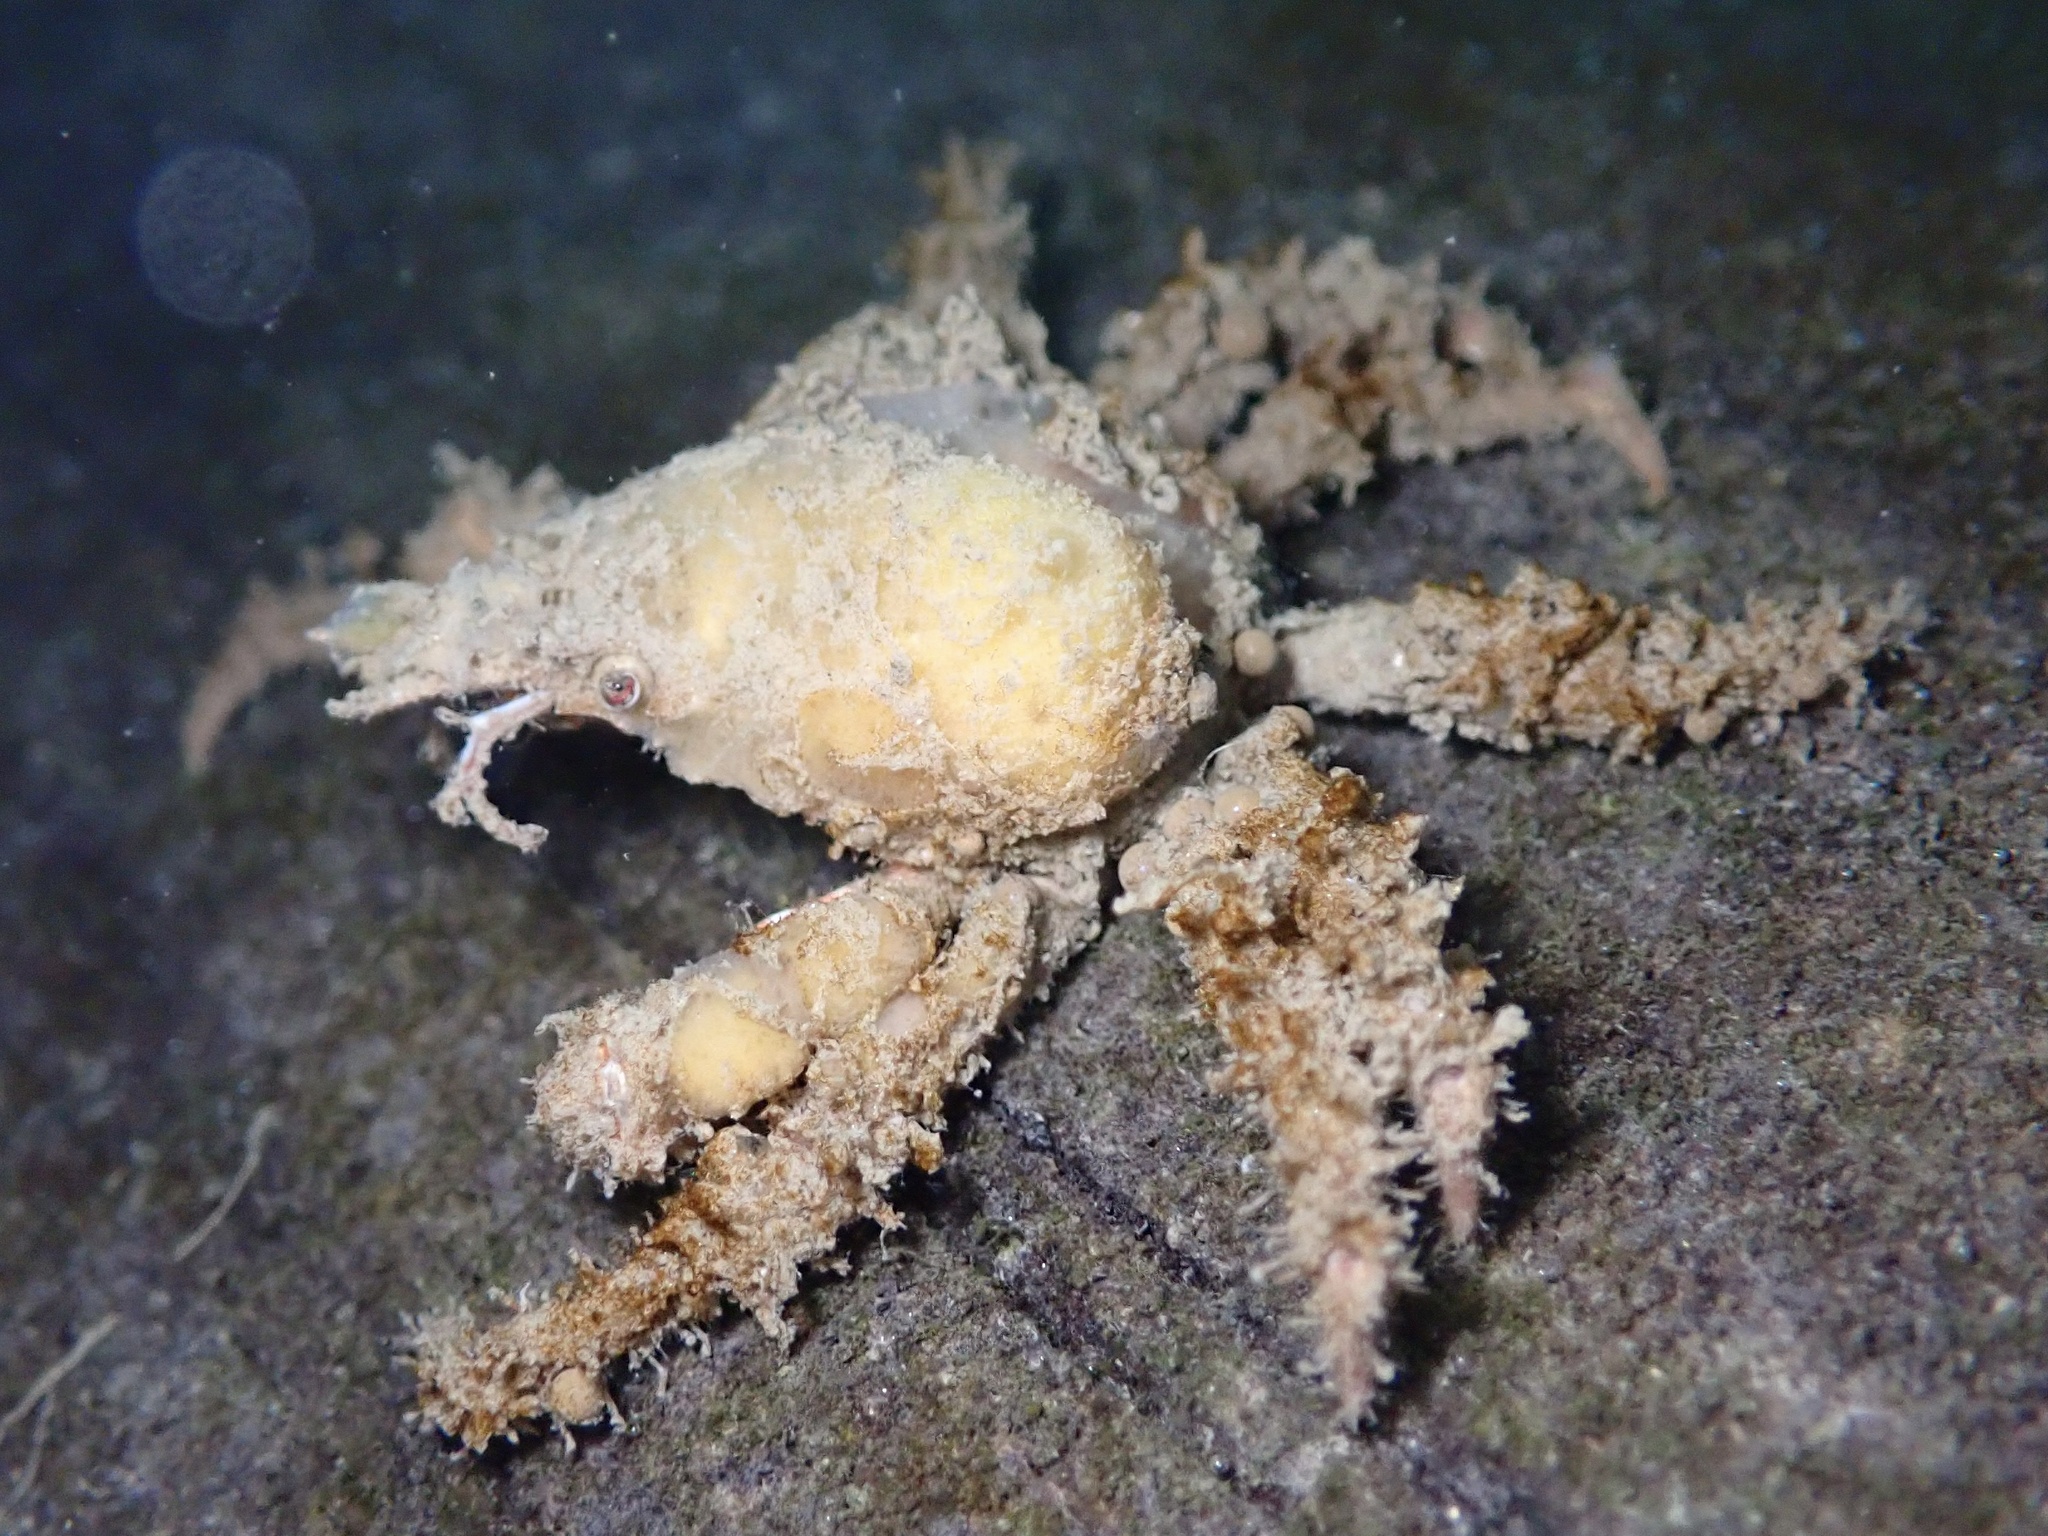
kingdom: Animalia
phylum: Arthropoda
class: Malacostraca
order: Decapoda
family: Epialtidae
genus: Scyra
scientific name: Scyra acutifrons
